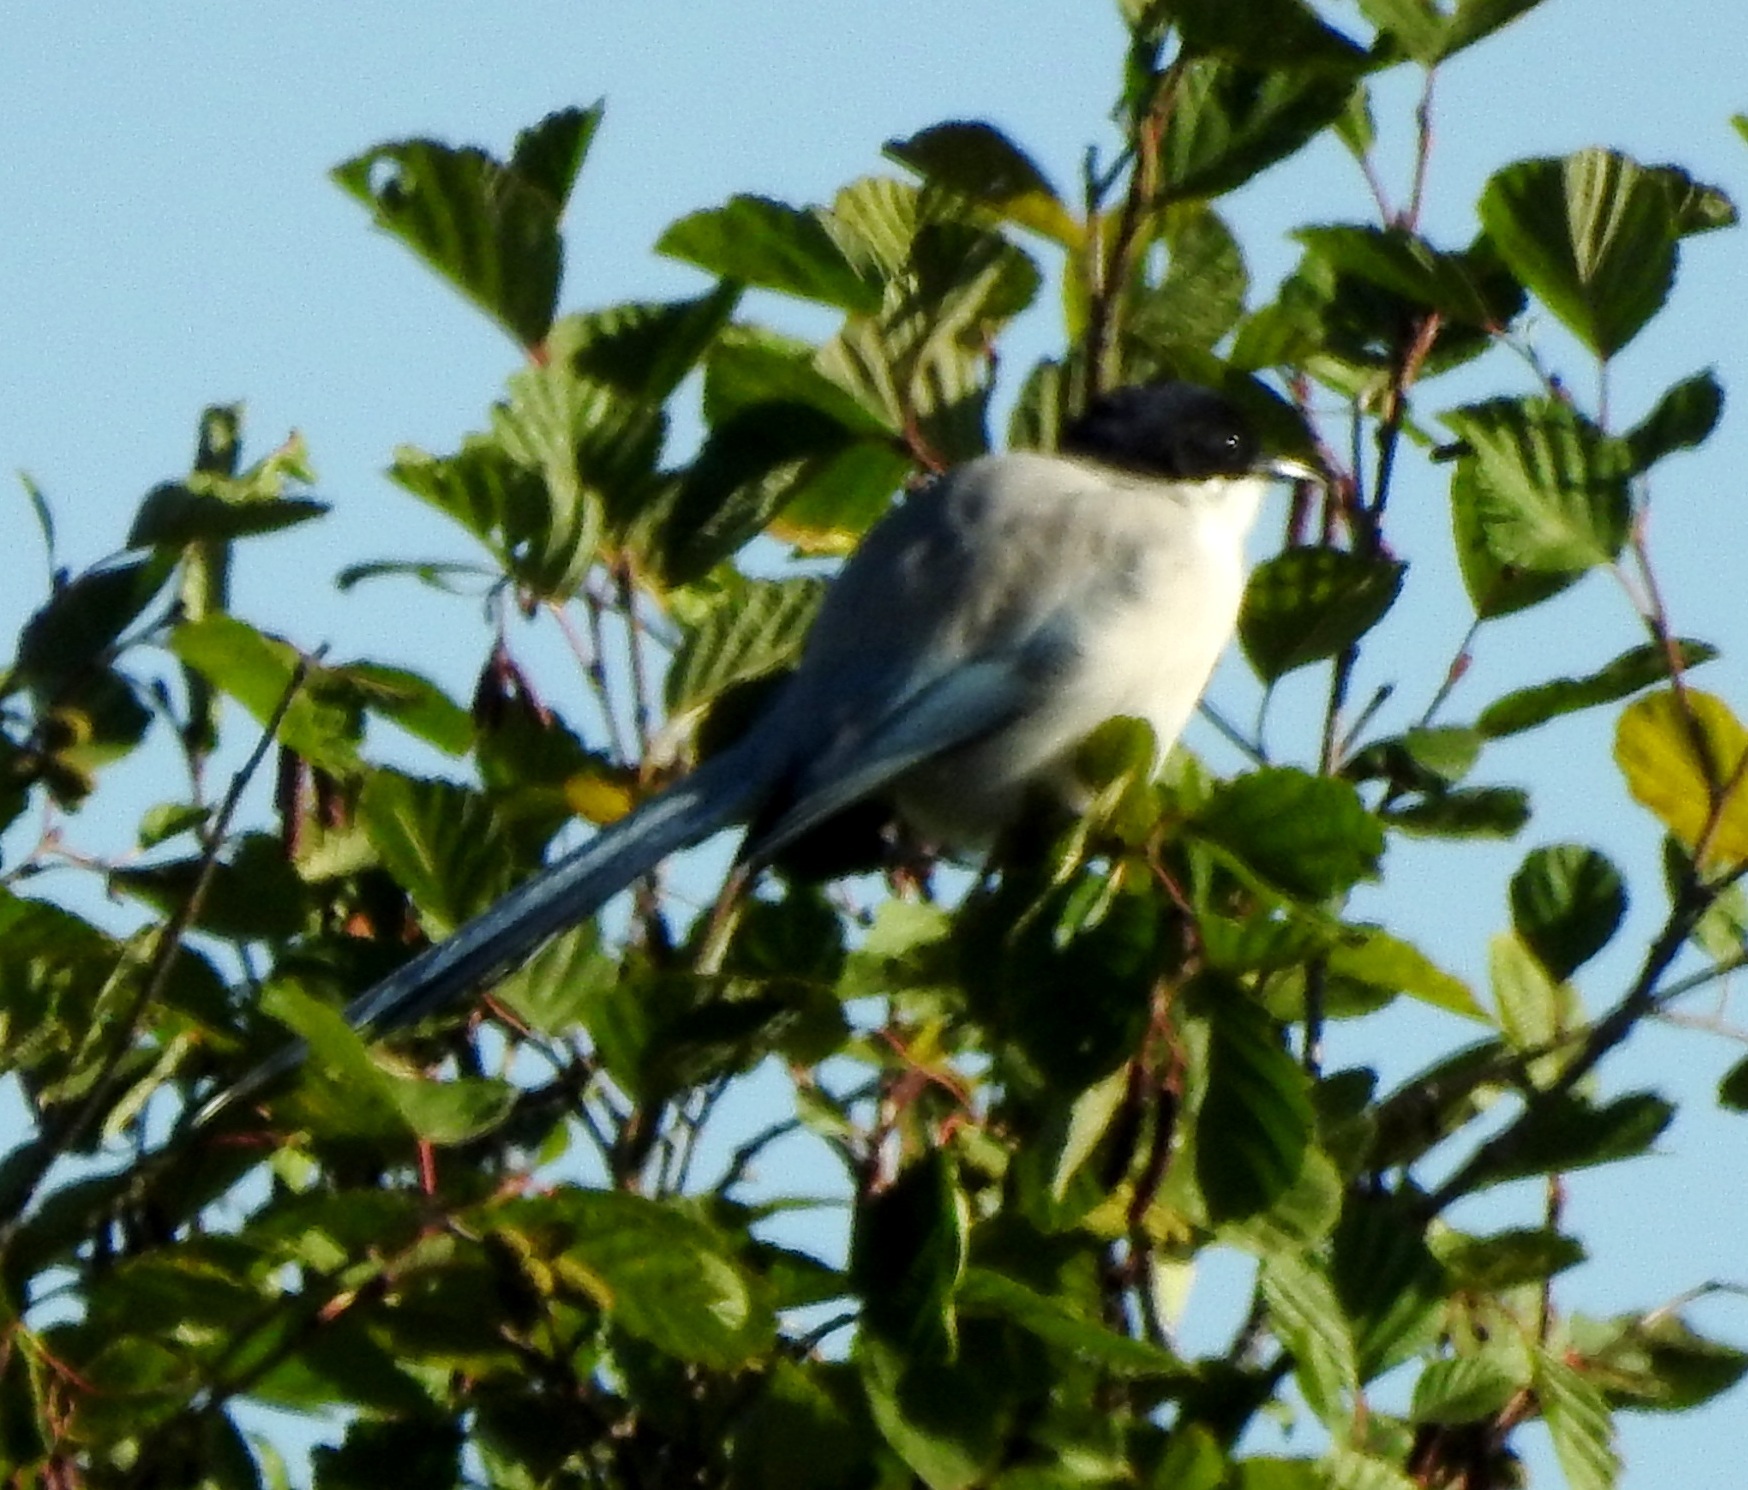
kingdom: Animalia
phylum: Chordata
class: Aves
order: Passeriformes
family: Corvidae
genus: Cyanopica
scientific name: Cyanopica cyanus
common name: Azure-winged magpie
